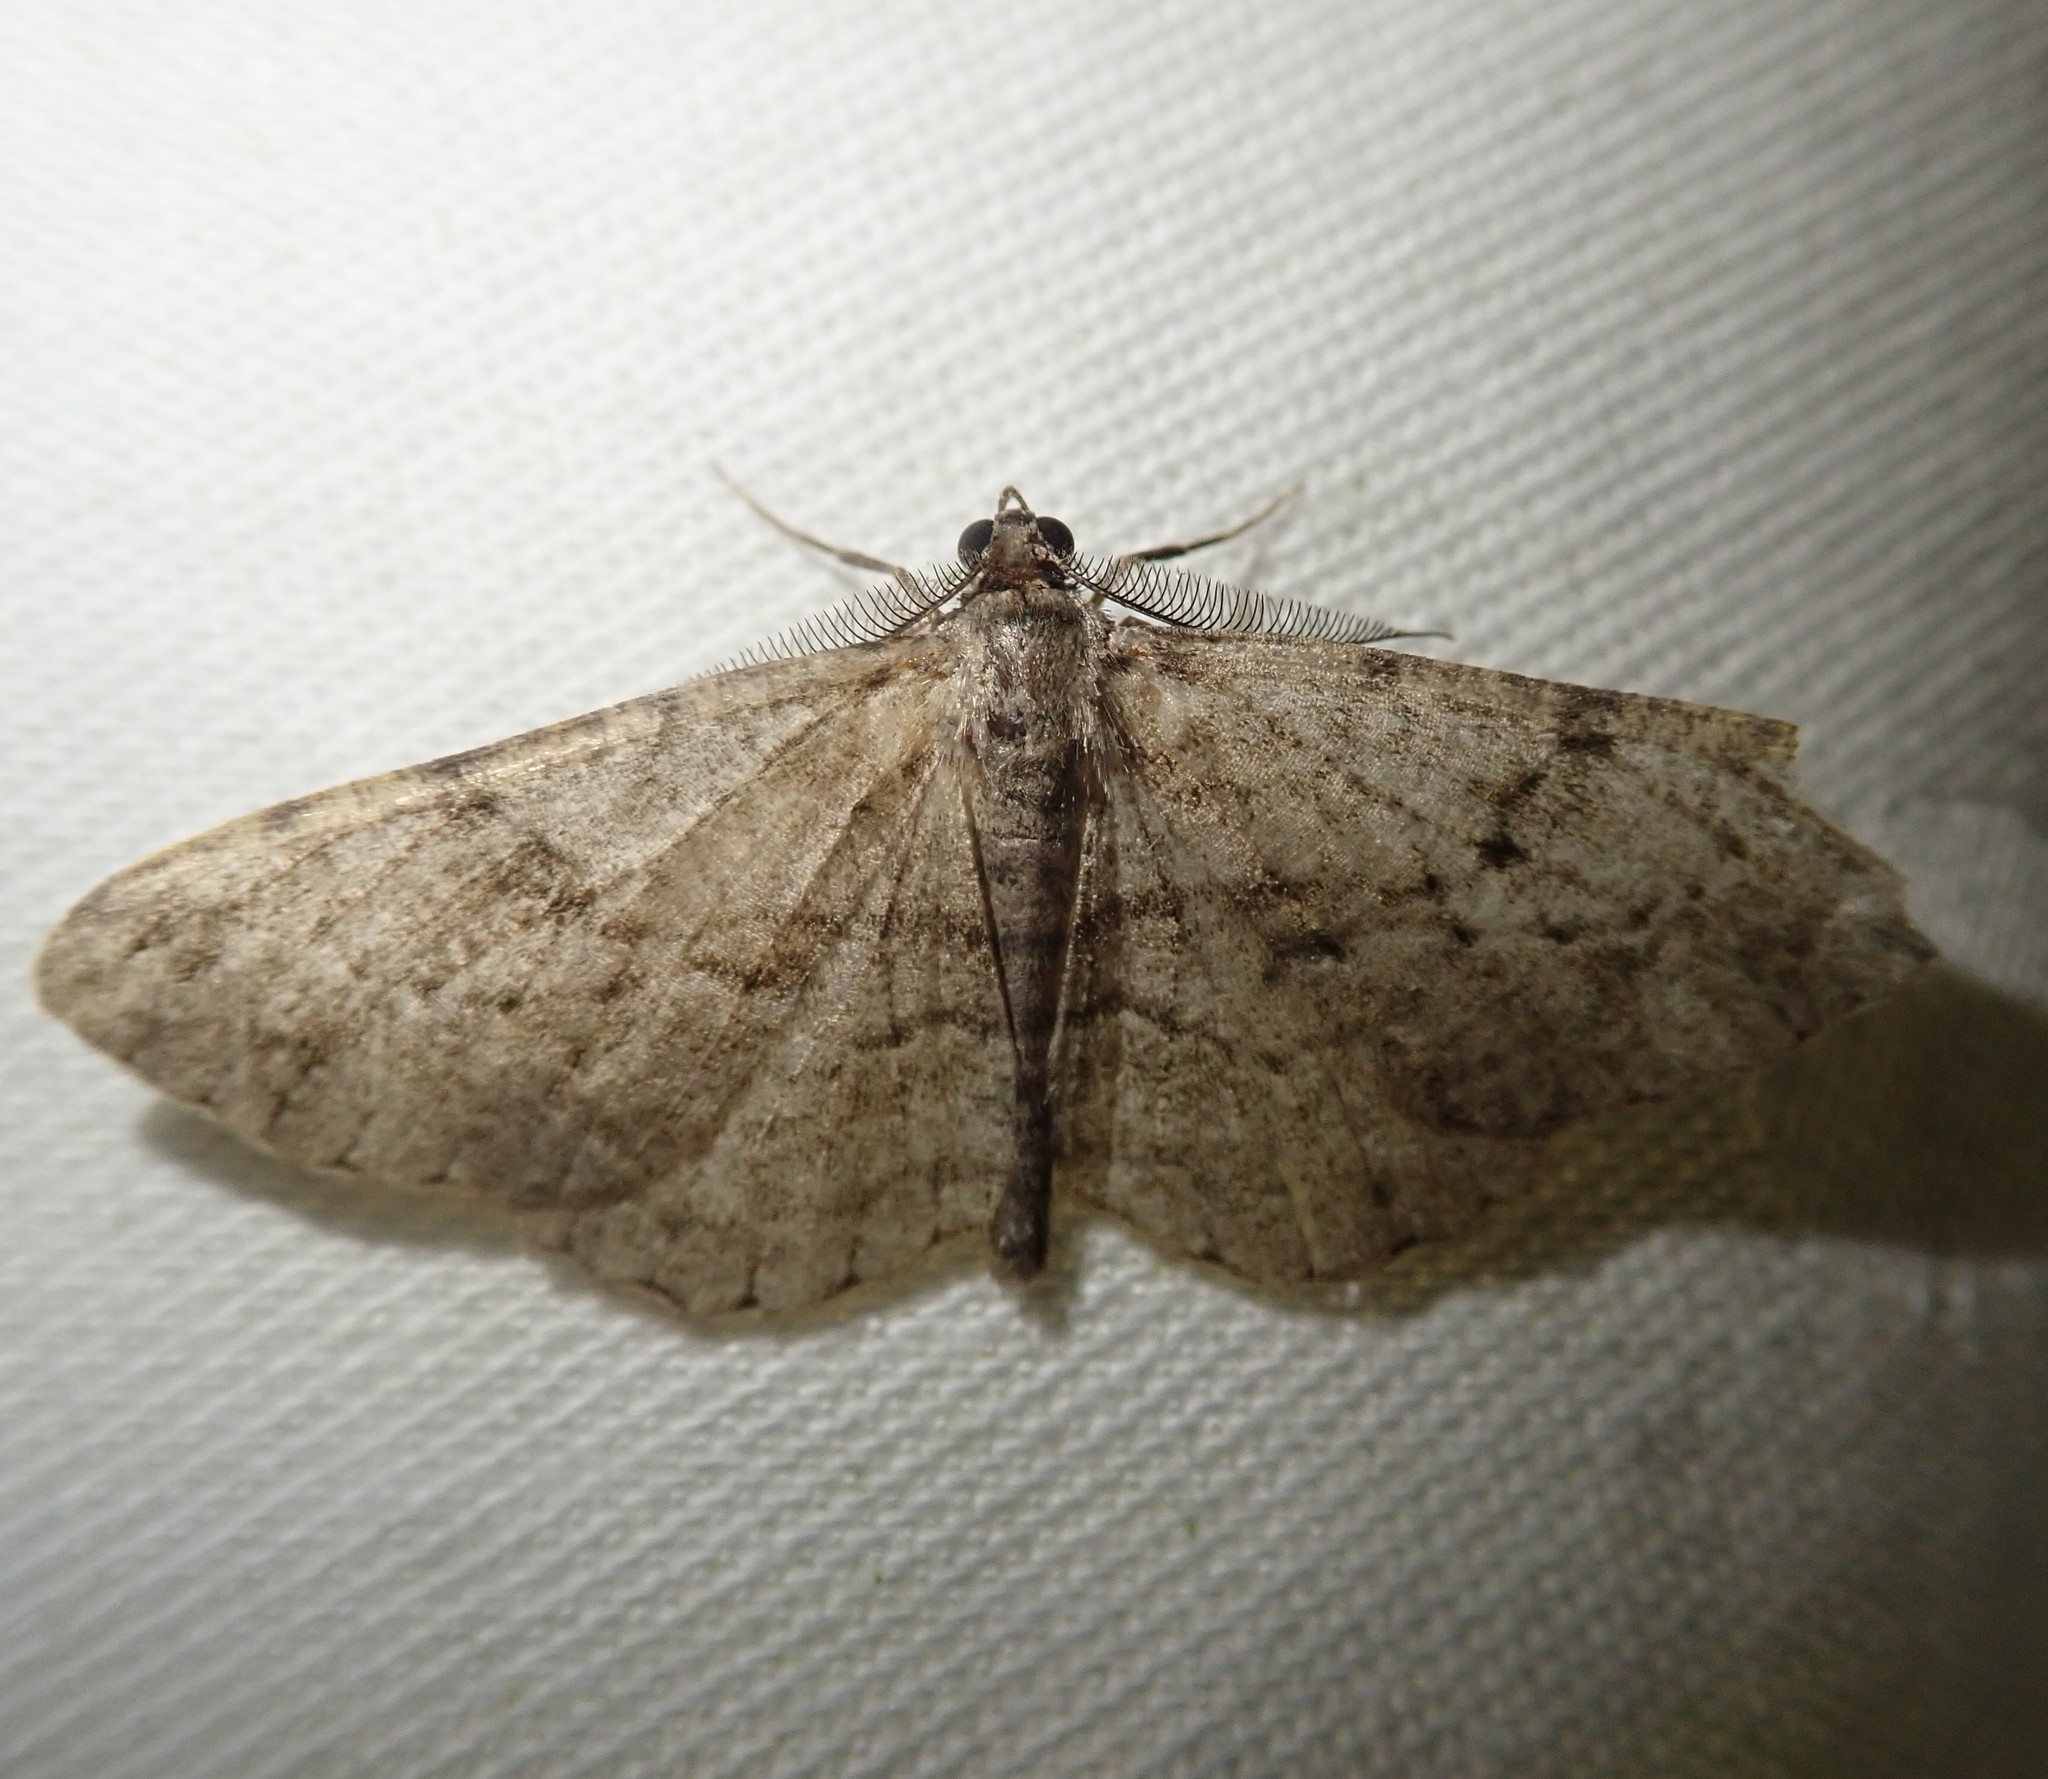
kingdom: Animalia
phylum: Arthropoda
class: Insecta
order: Lepidoptera
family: Geometridae
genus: Peribatodes
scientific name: Peribatodes rhomboidaria
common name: Willow beauty
